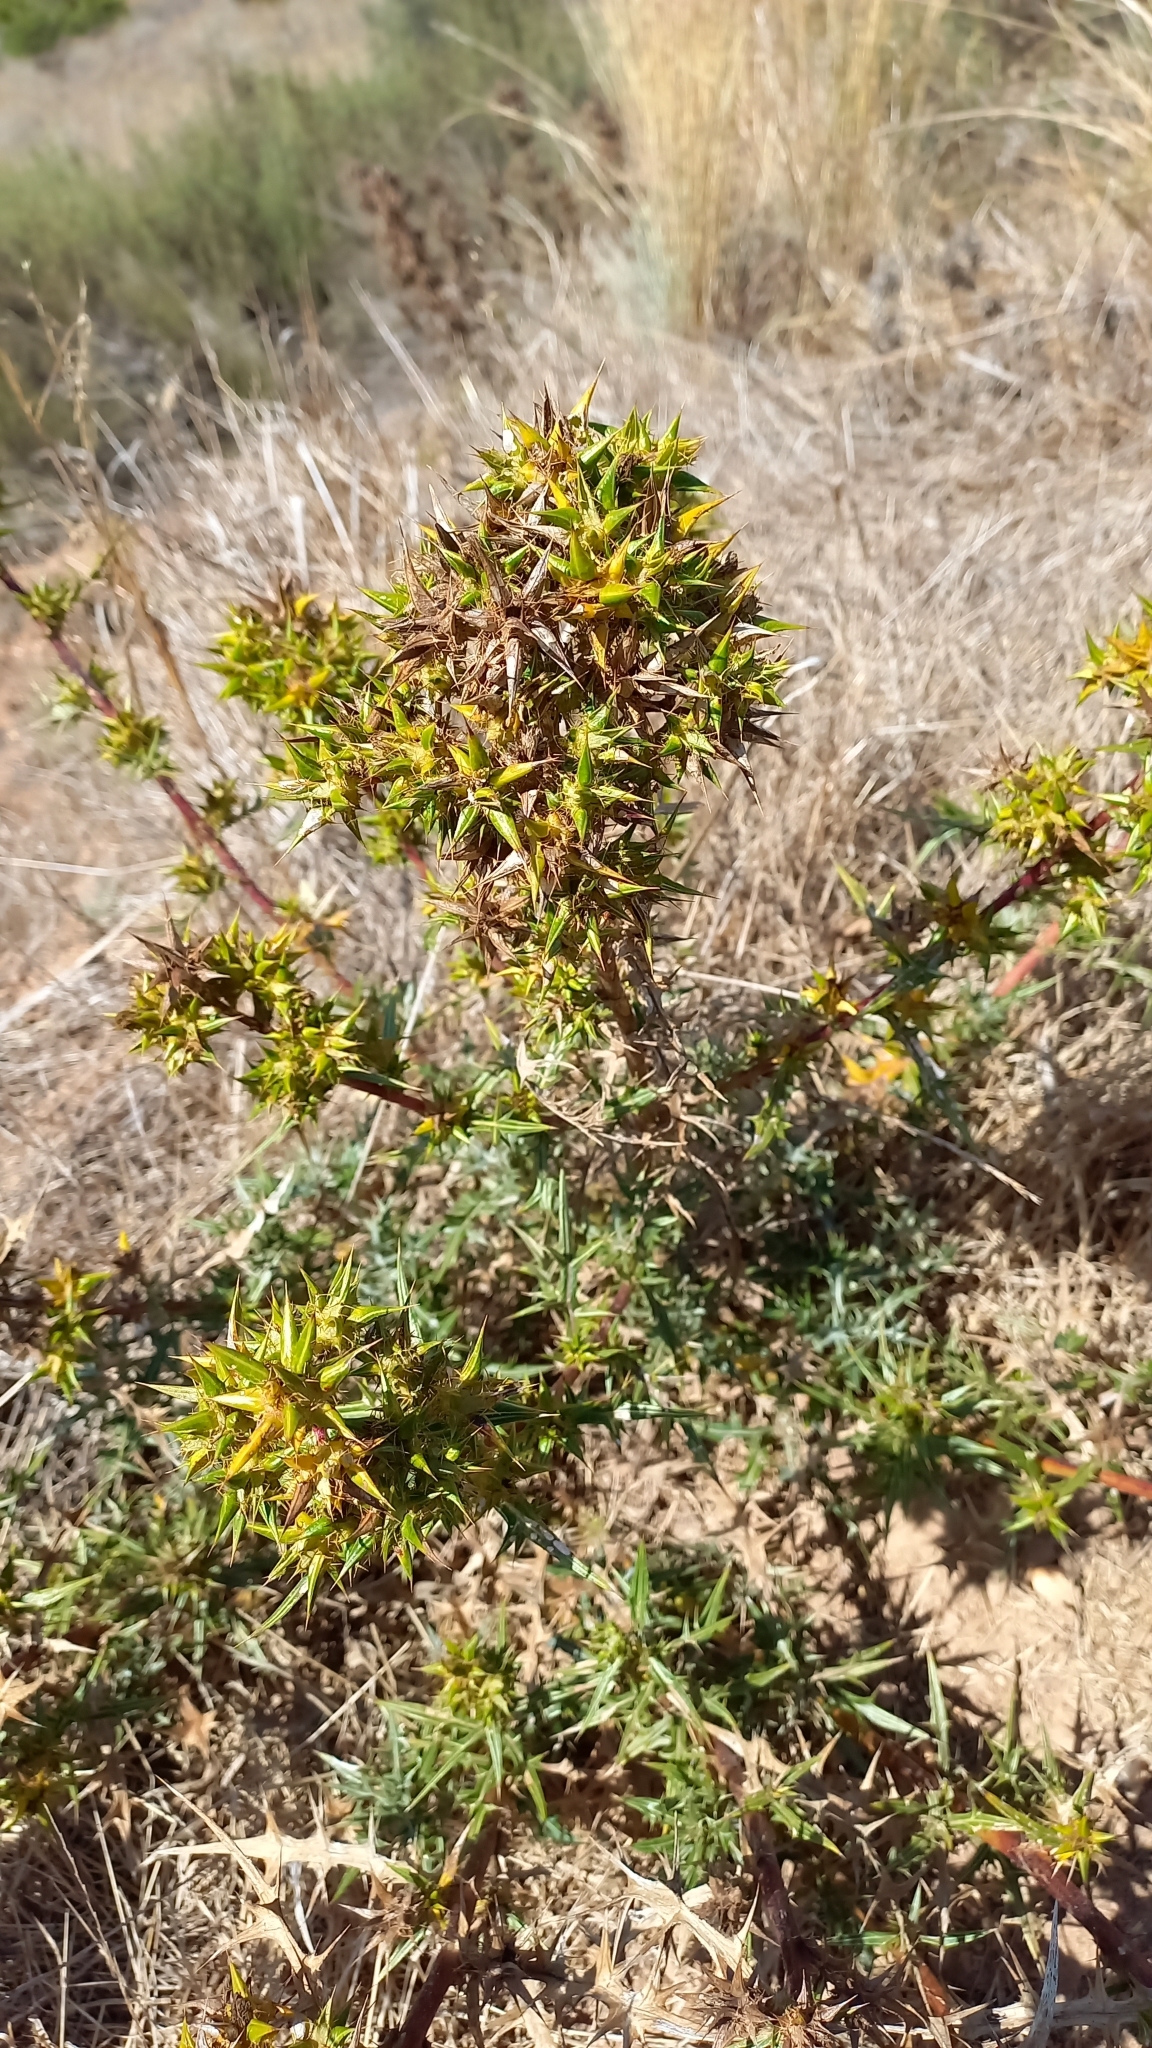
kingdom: Plantae
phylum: Tracheophyta
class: Magnoliopsida
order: Asterales
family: Asteraceae
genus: Berkheya
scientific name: Berkheya rigida
